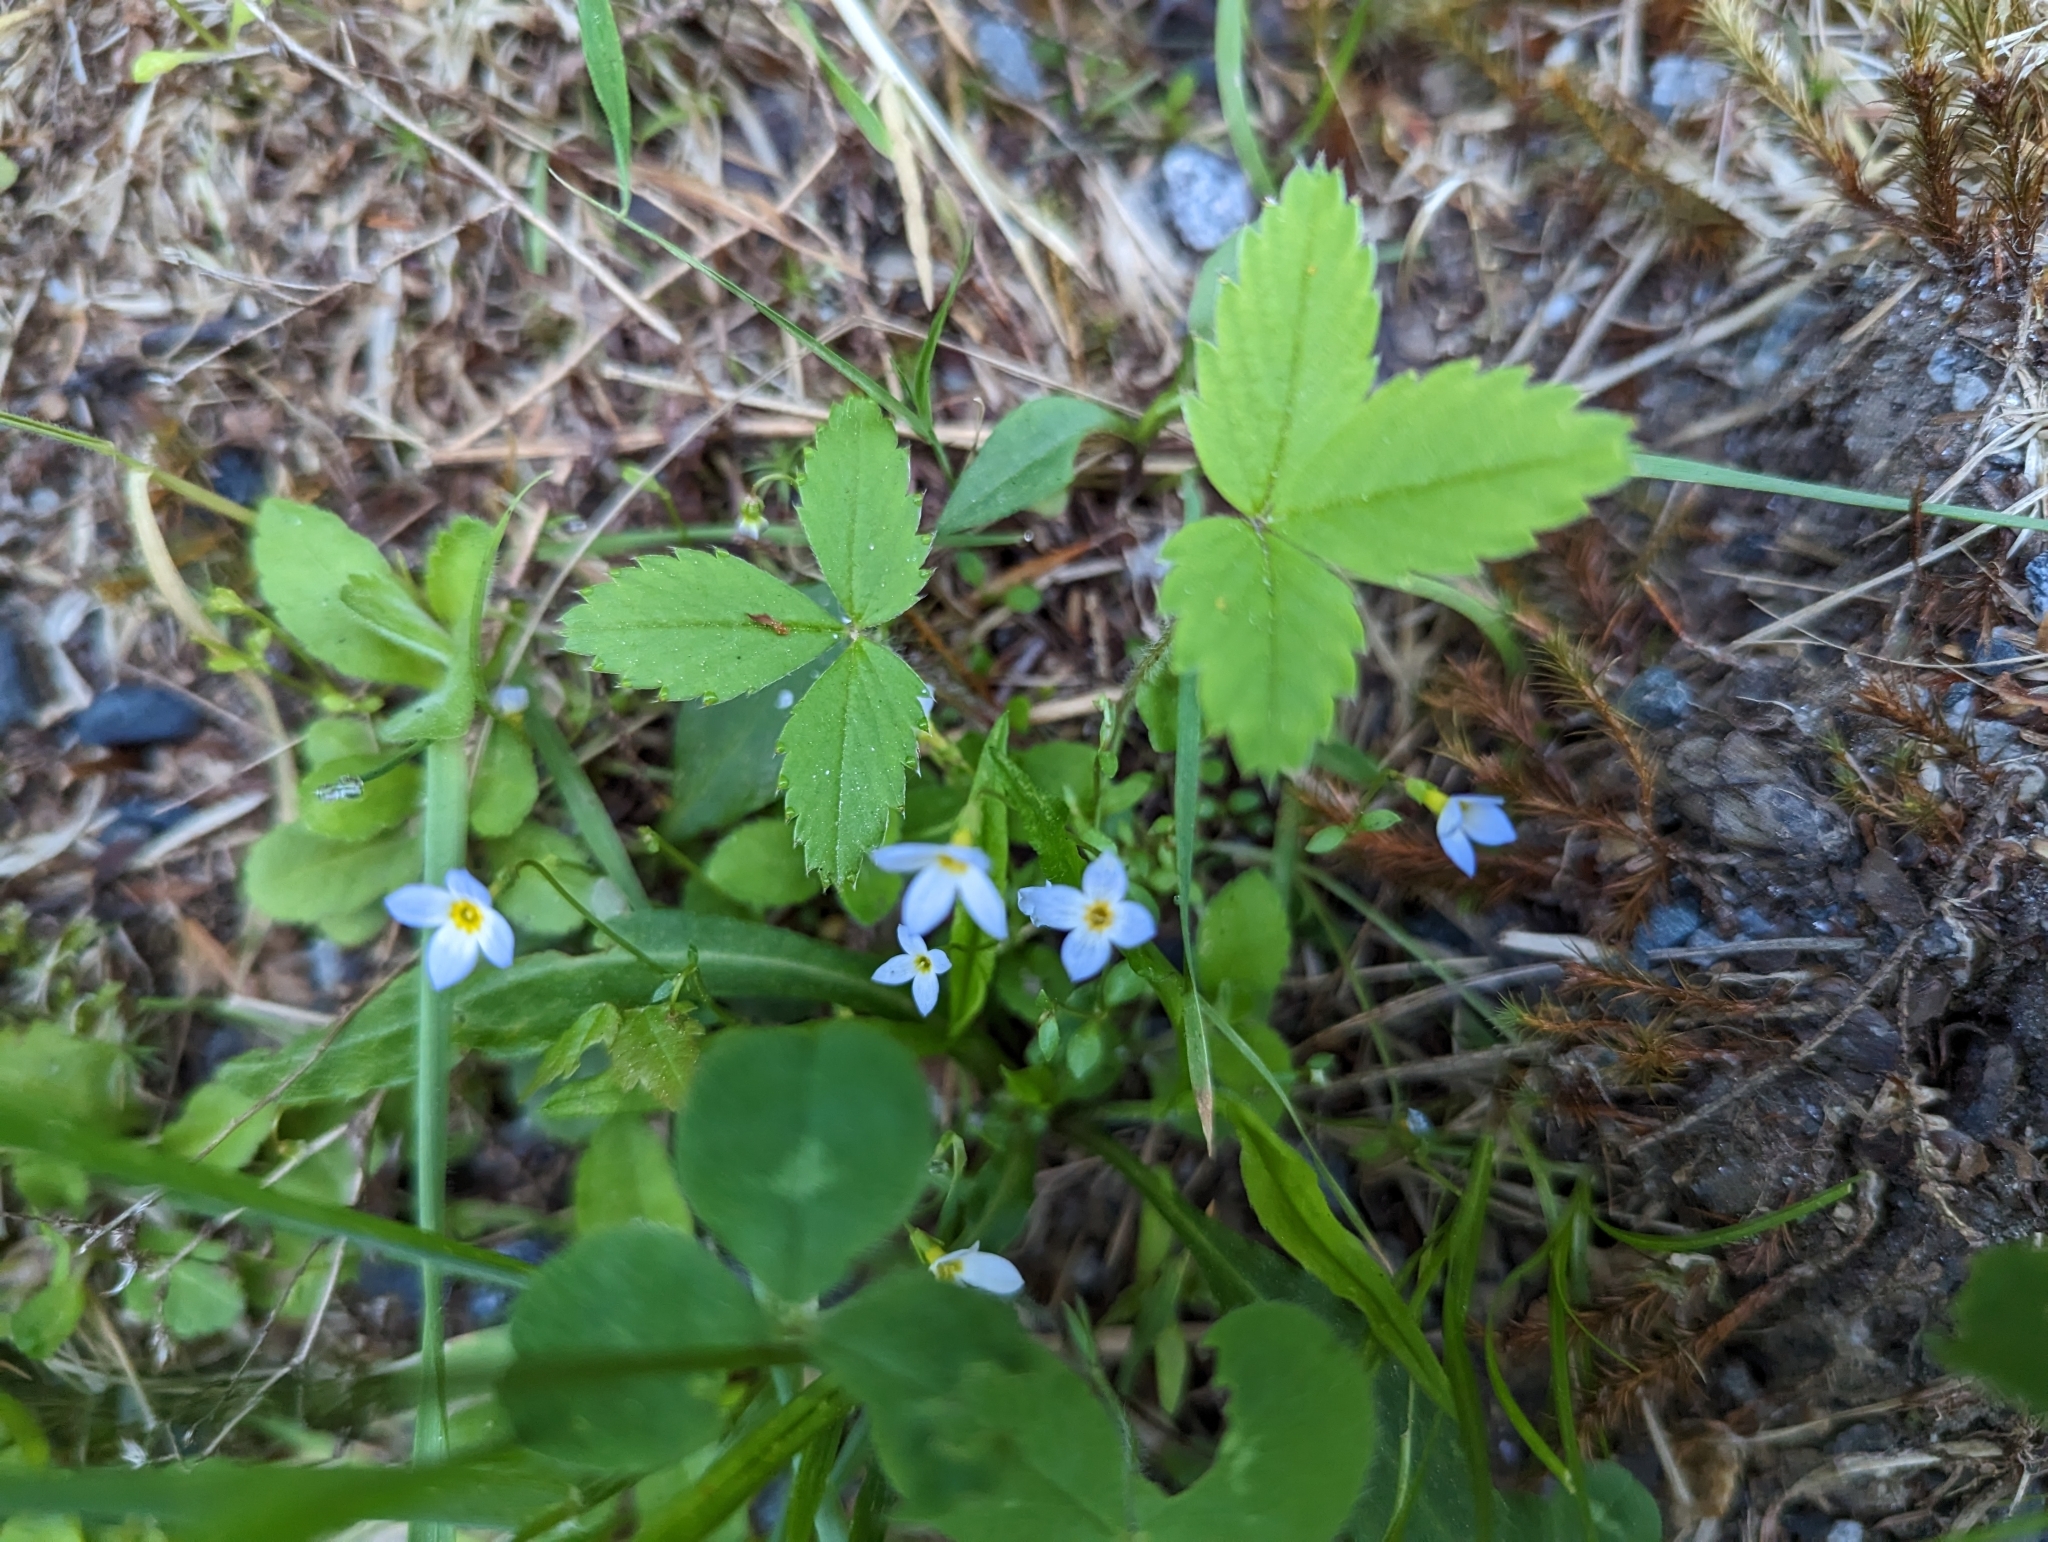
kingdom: Plantae
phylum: Tracheophyta
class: Magnoliopsida
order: Gentianales
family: Rubiaceae
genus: Houstonia
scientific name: Houstonia caerulea
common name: Bluets
